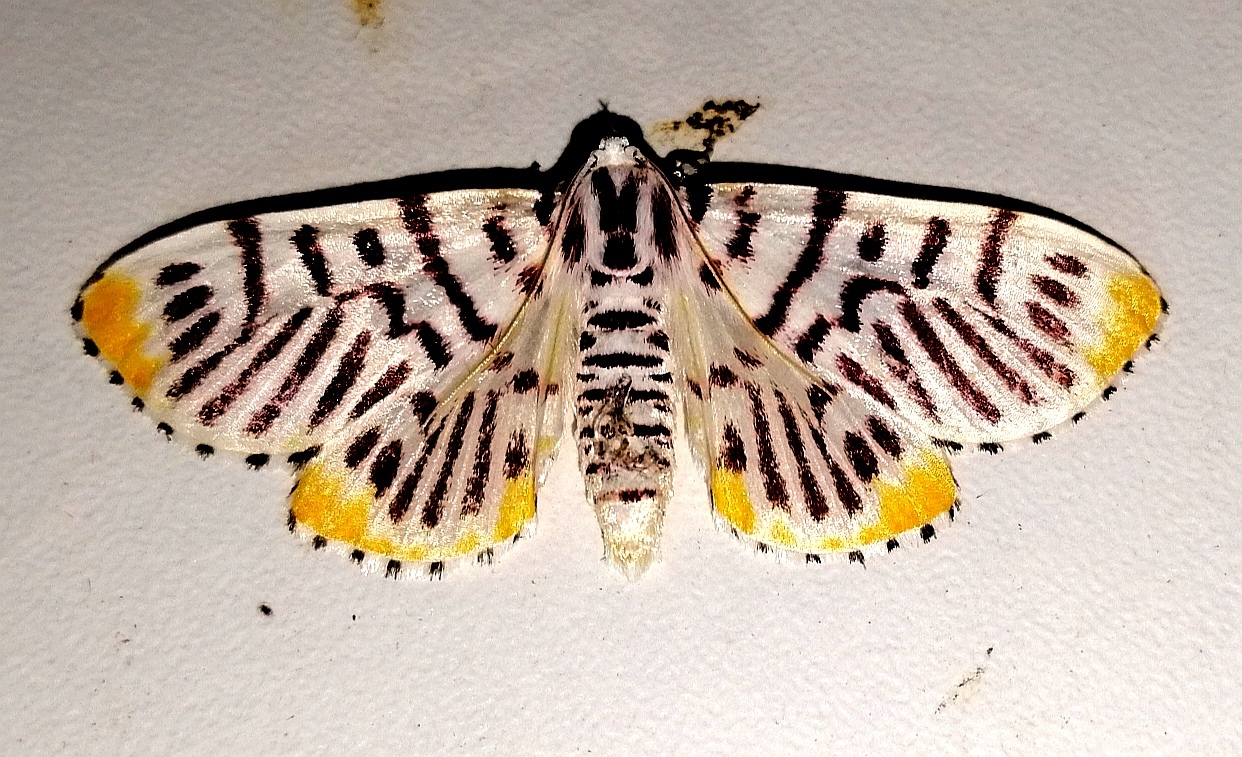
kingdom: Animalia
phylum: Arthropoda
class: Insecta
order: Lepidoptera
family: Crambidae
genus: Polygrammodes
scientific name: Polygrammodes maccalis
